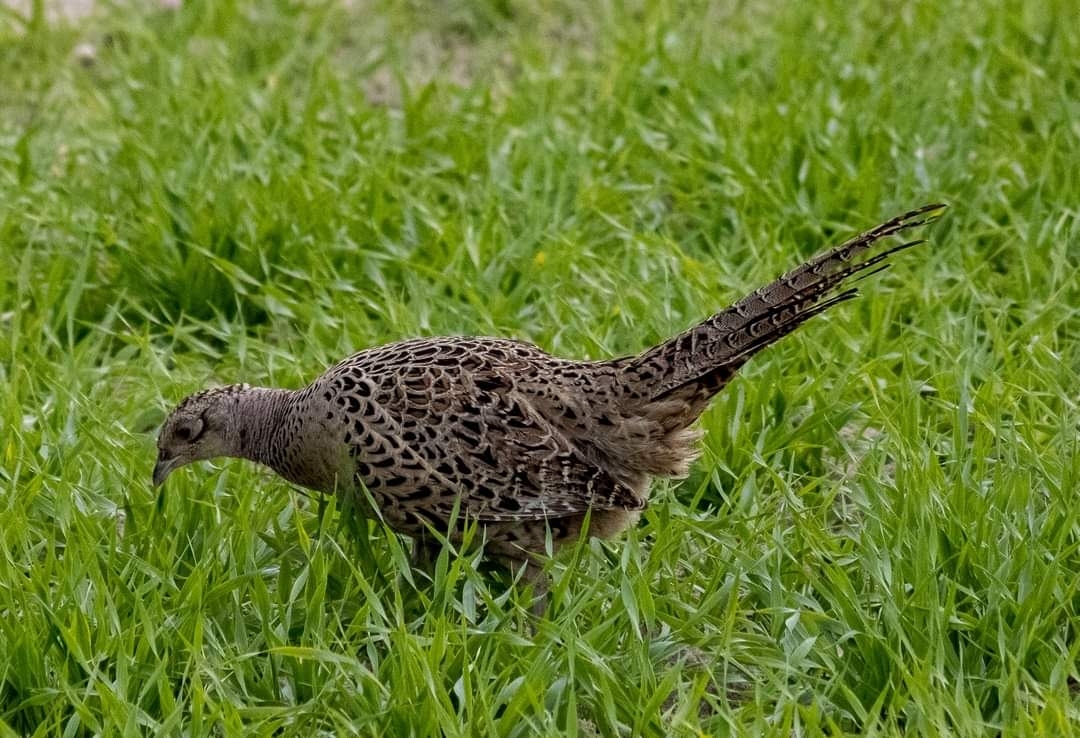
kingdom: Animalia
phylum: Chordata
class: Aves
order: Galliformes
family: Phasianidae
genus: Phasianus
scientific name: Phasianus colchicus
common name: Common pheasant
